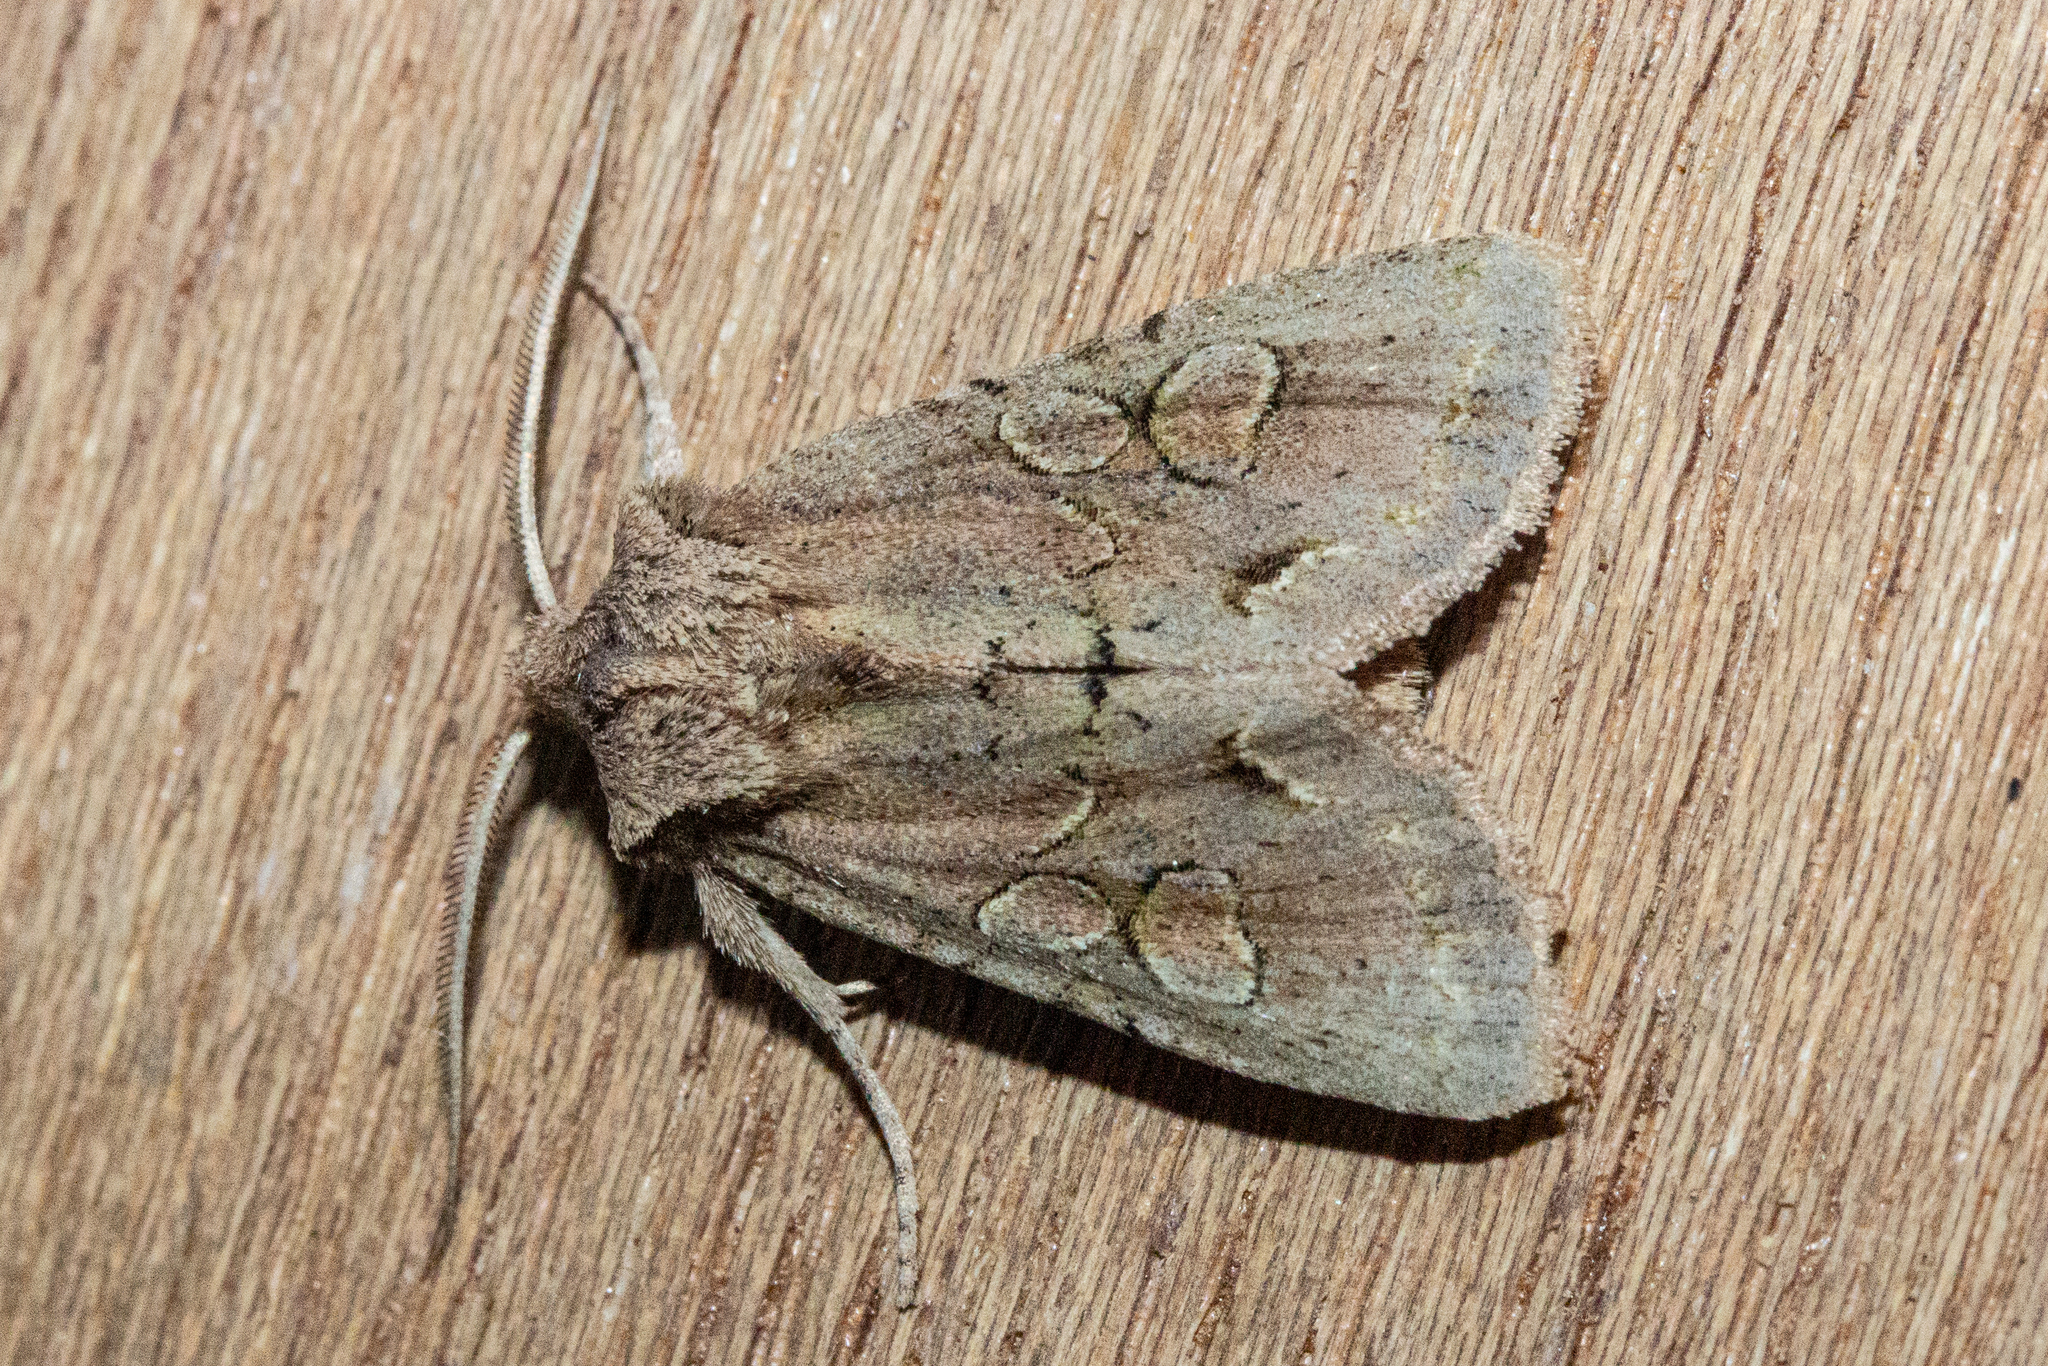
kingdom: Animalia
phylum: Arthropoda
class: Insecta
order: Lepidoptera
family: Noctuidae
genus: Ichneutica
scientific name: Ichneutica skelloni
